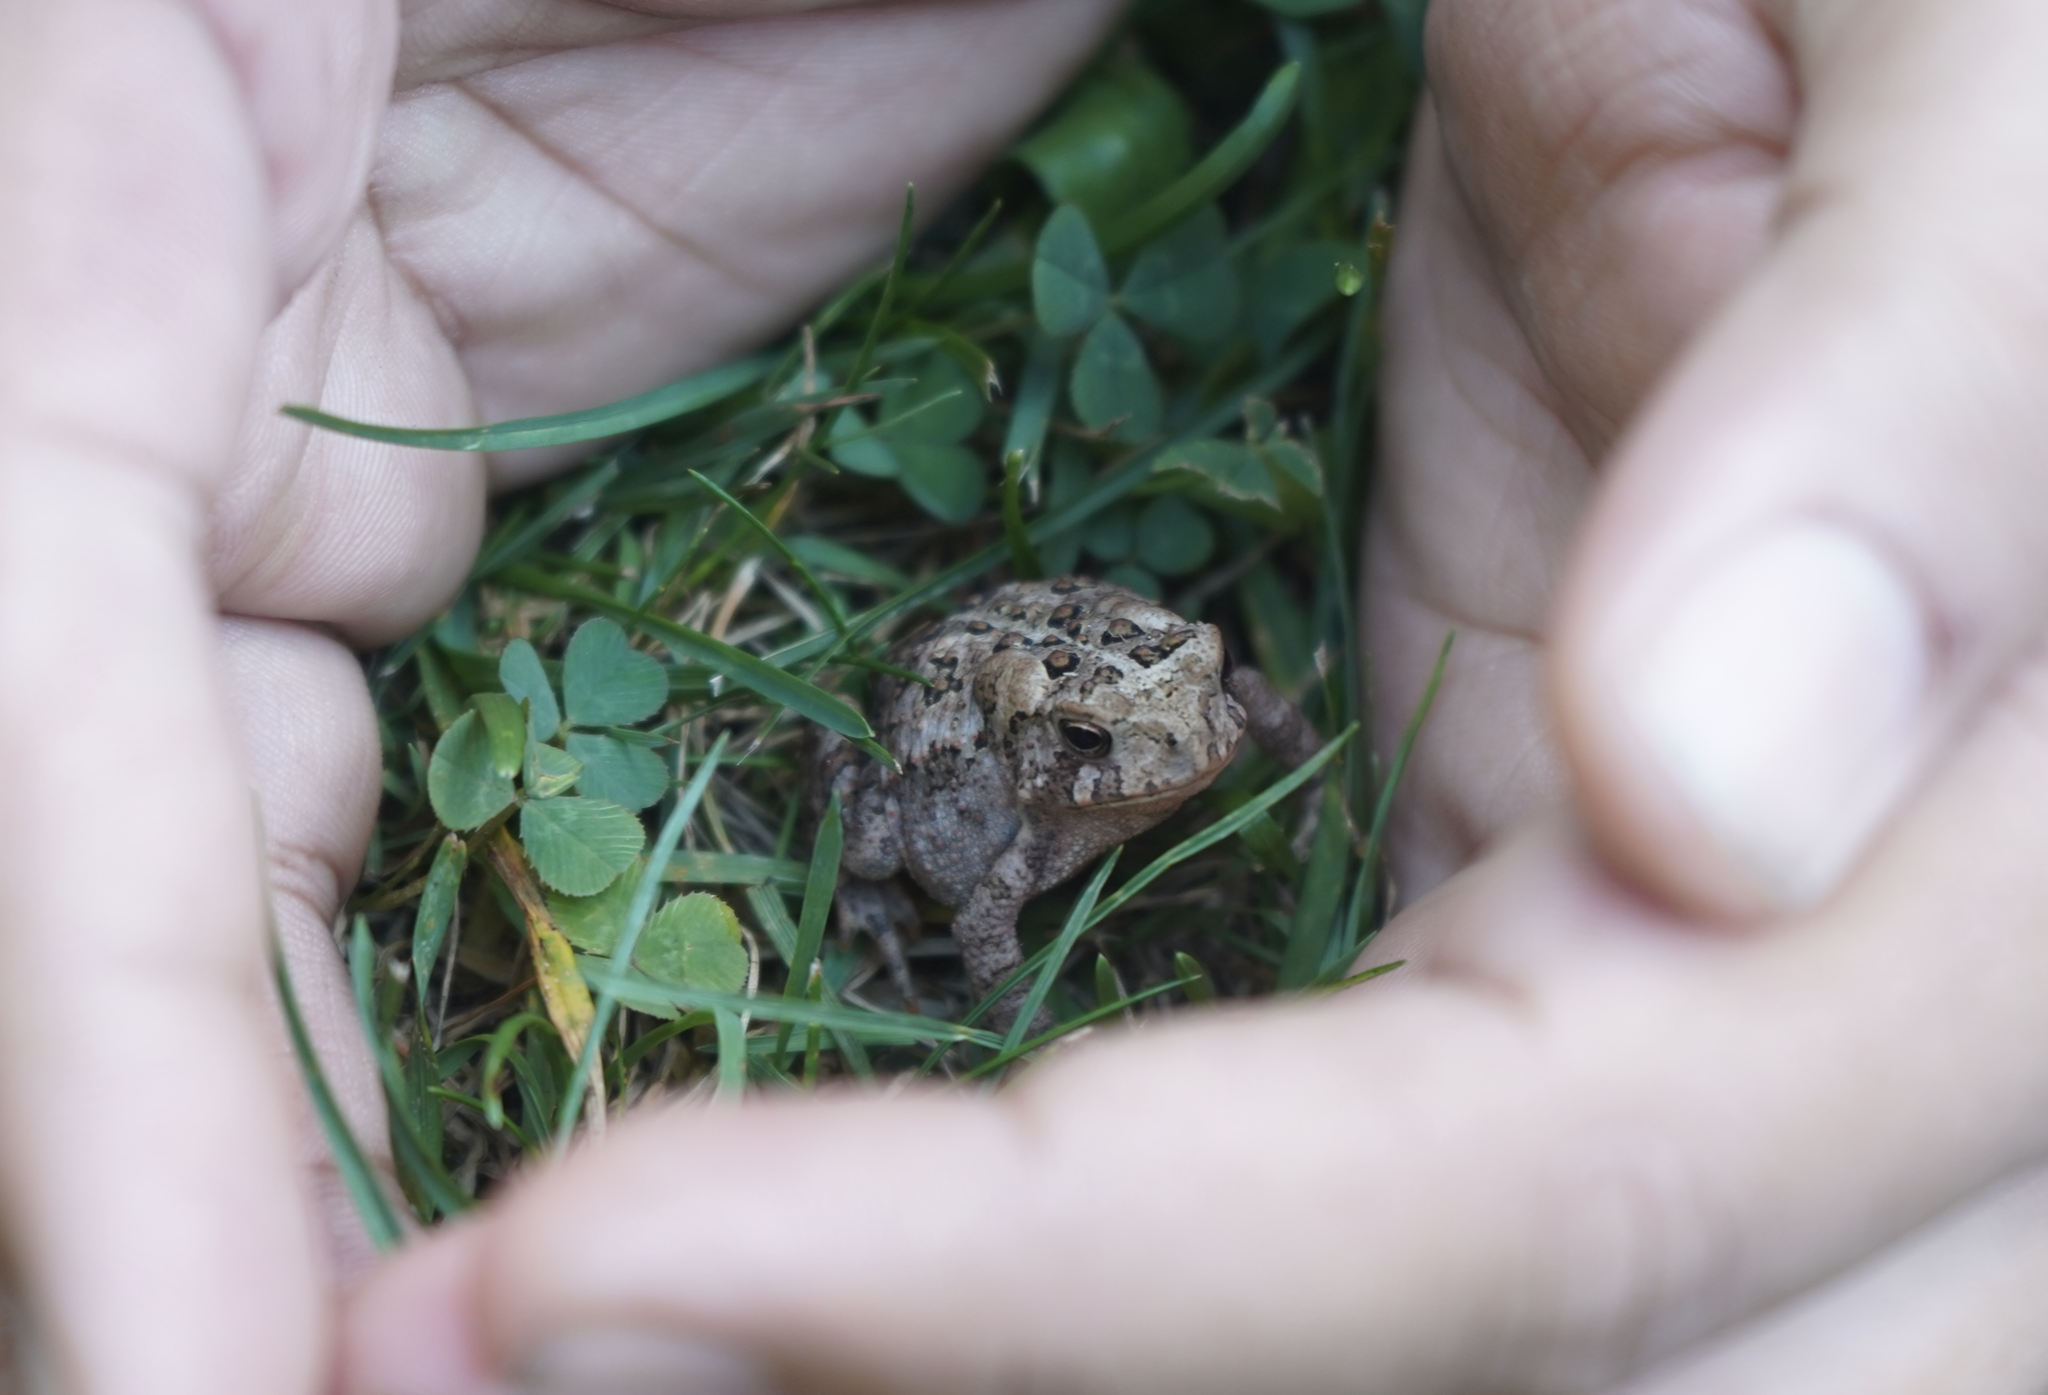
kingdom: Animalia
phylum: Chordata
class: Amphibia
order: Anura
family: Bufonidae
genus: Anaxyrus
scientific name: Anaxyrus americanus
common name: American toad
